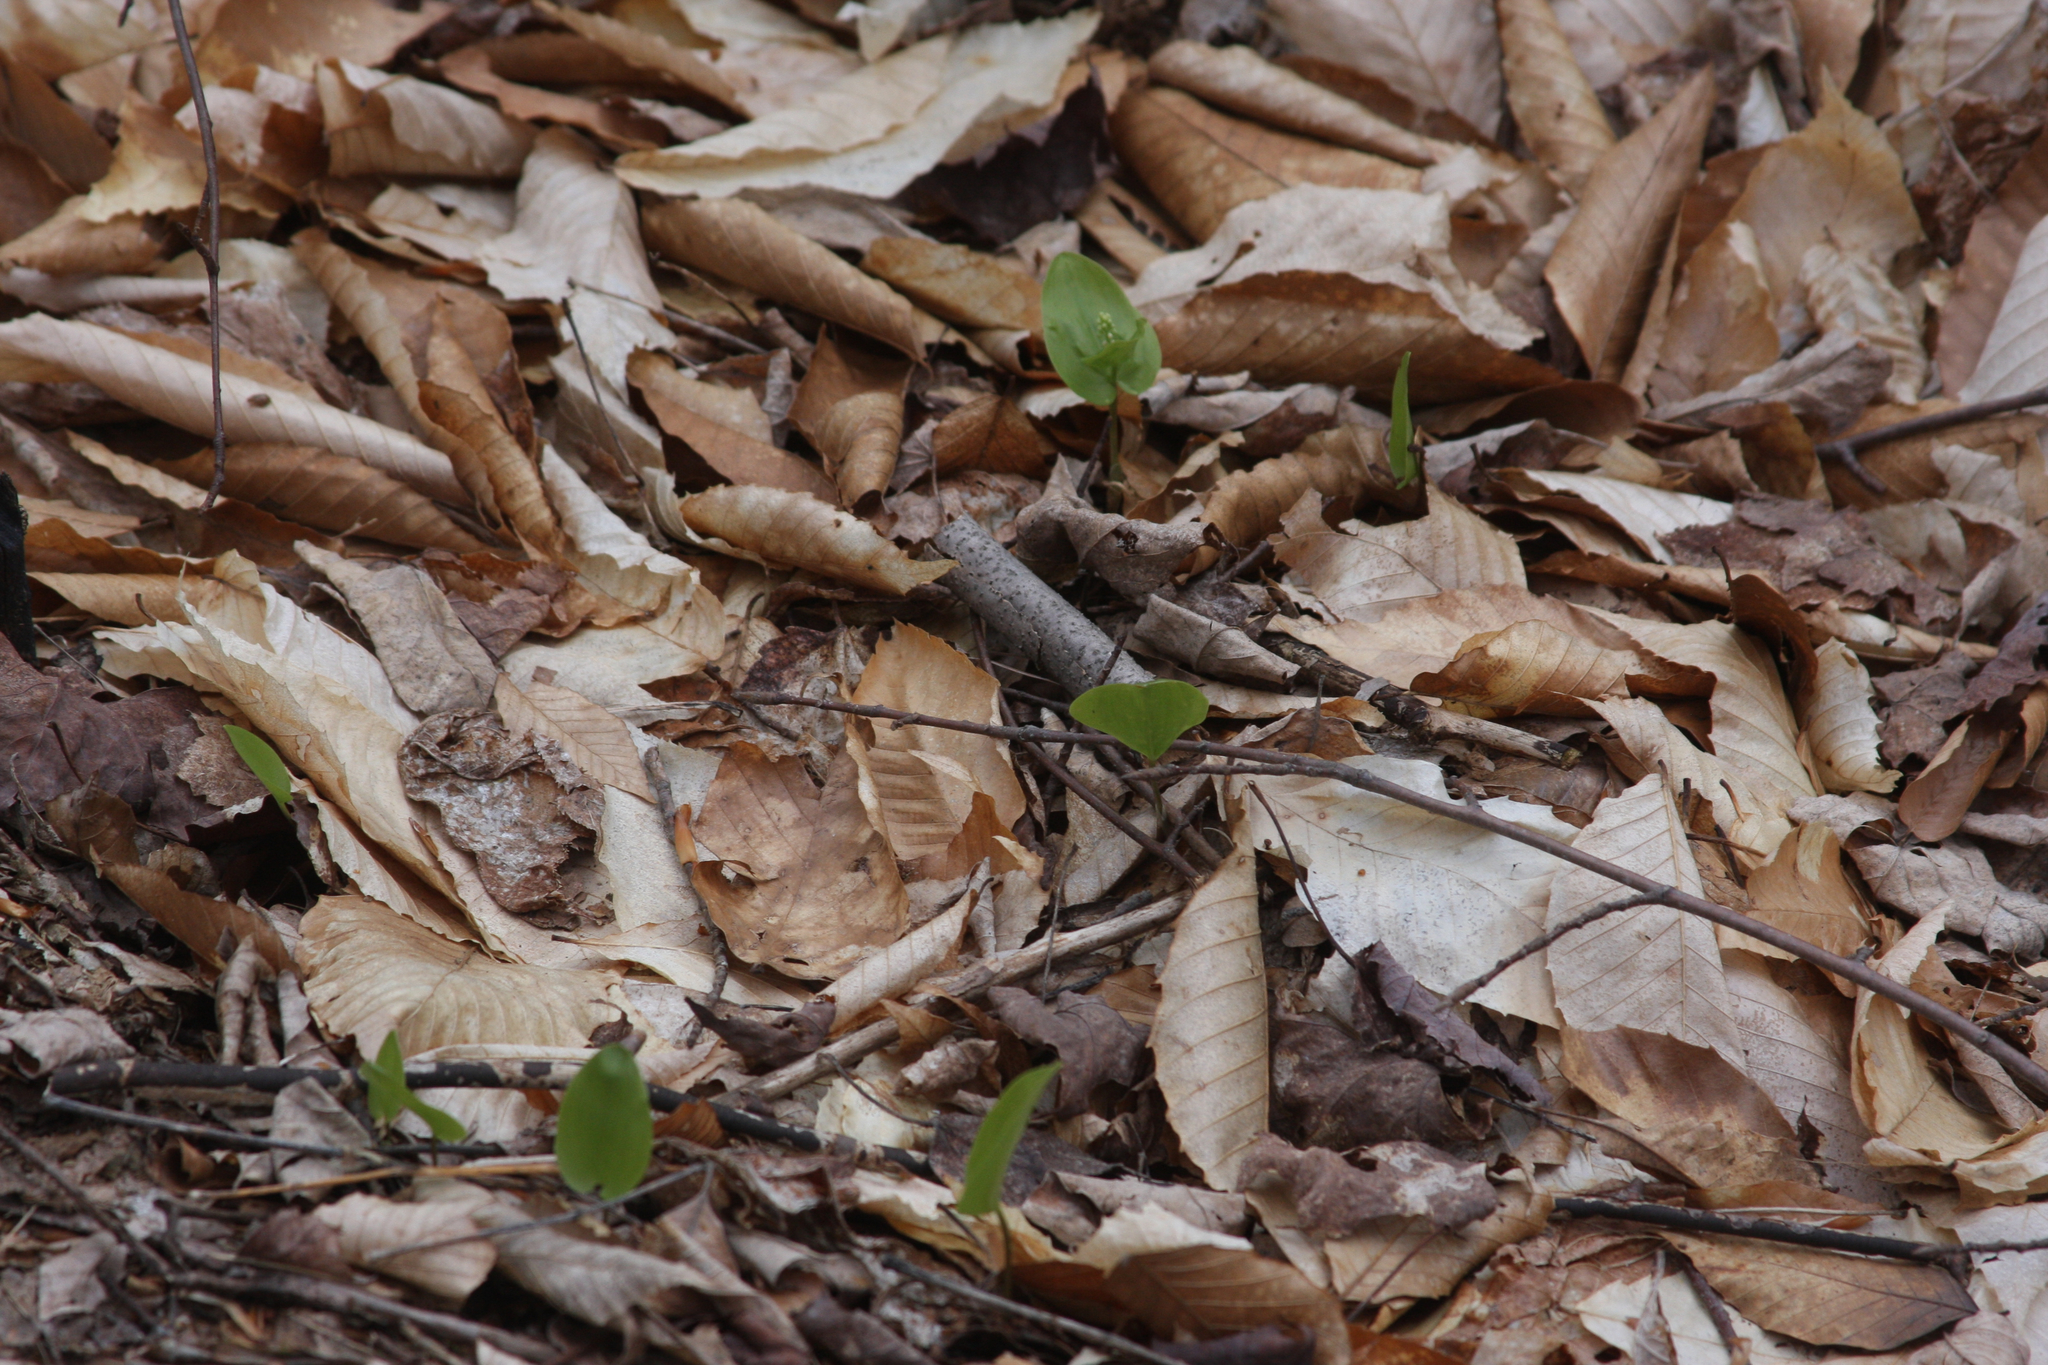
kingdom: Plantae
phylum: Tracheophyta
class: Liliopsida
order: Asparagales
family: Asparagaceae
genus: Maianthemum
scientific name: Maianthemum canadense
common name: False lily-of-the-valley
